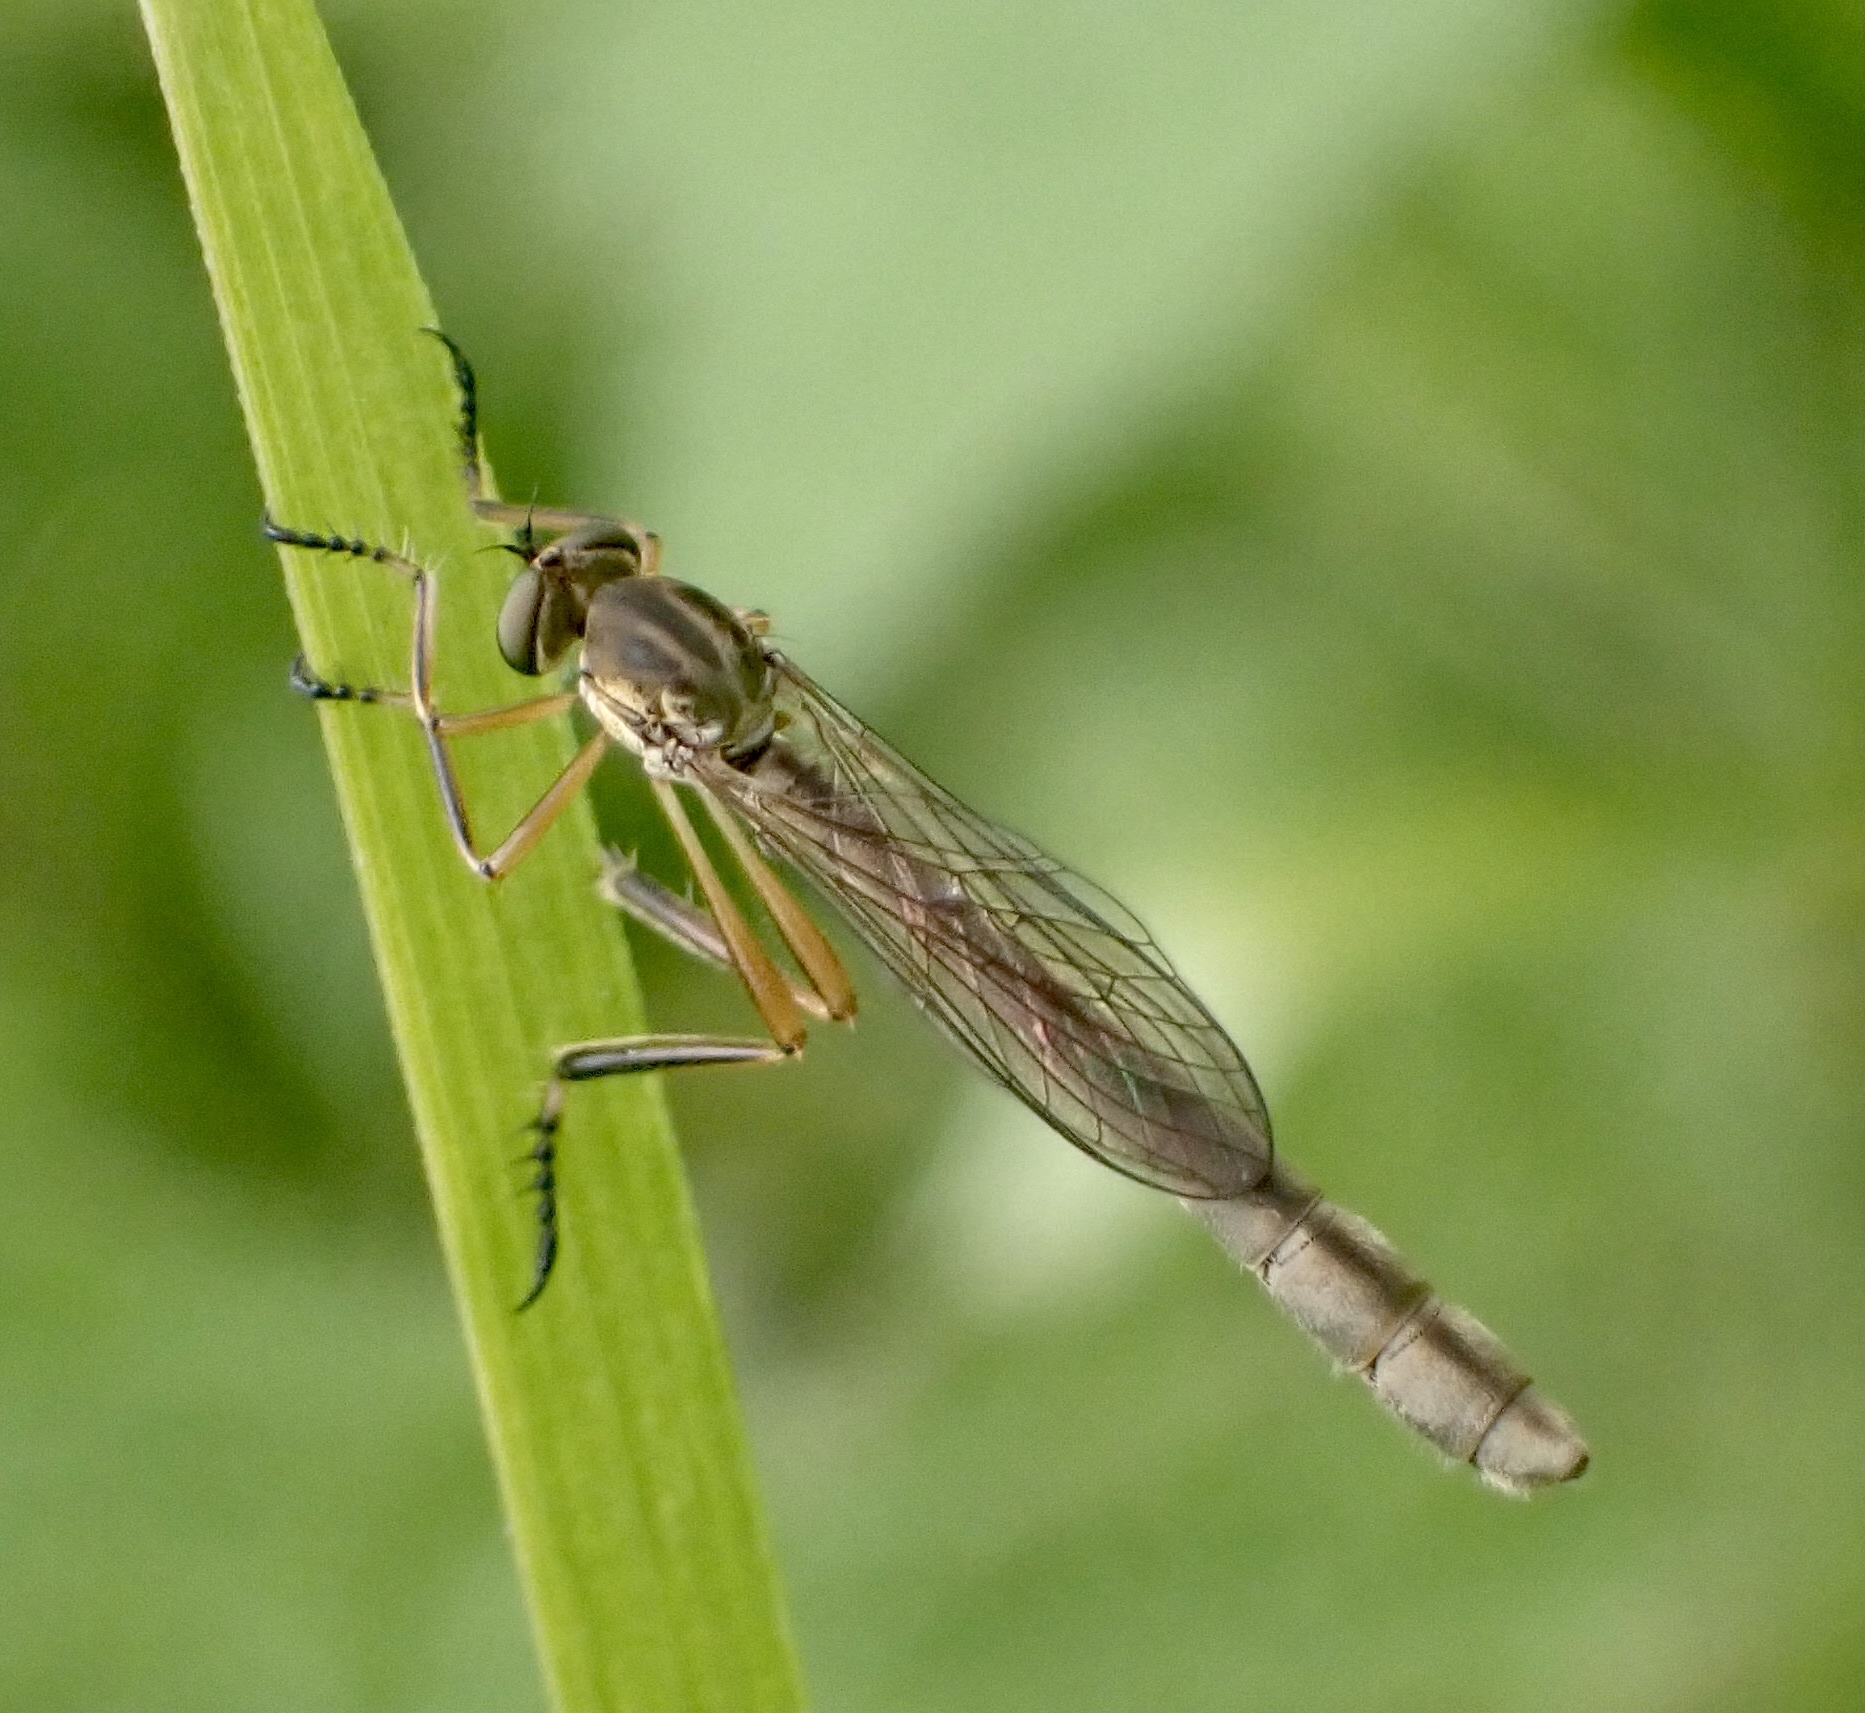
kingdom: Animalia
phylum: Arthropoda
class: Insecta
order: Diptera
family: Asilidae
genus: Leptogaster
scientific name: Leptogaster cylindrica
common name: Striped slender robberfly
